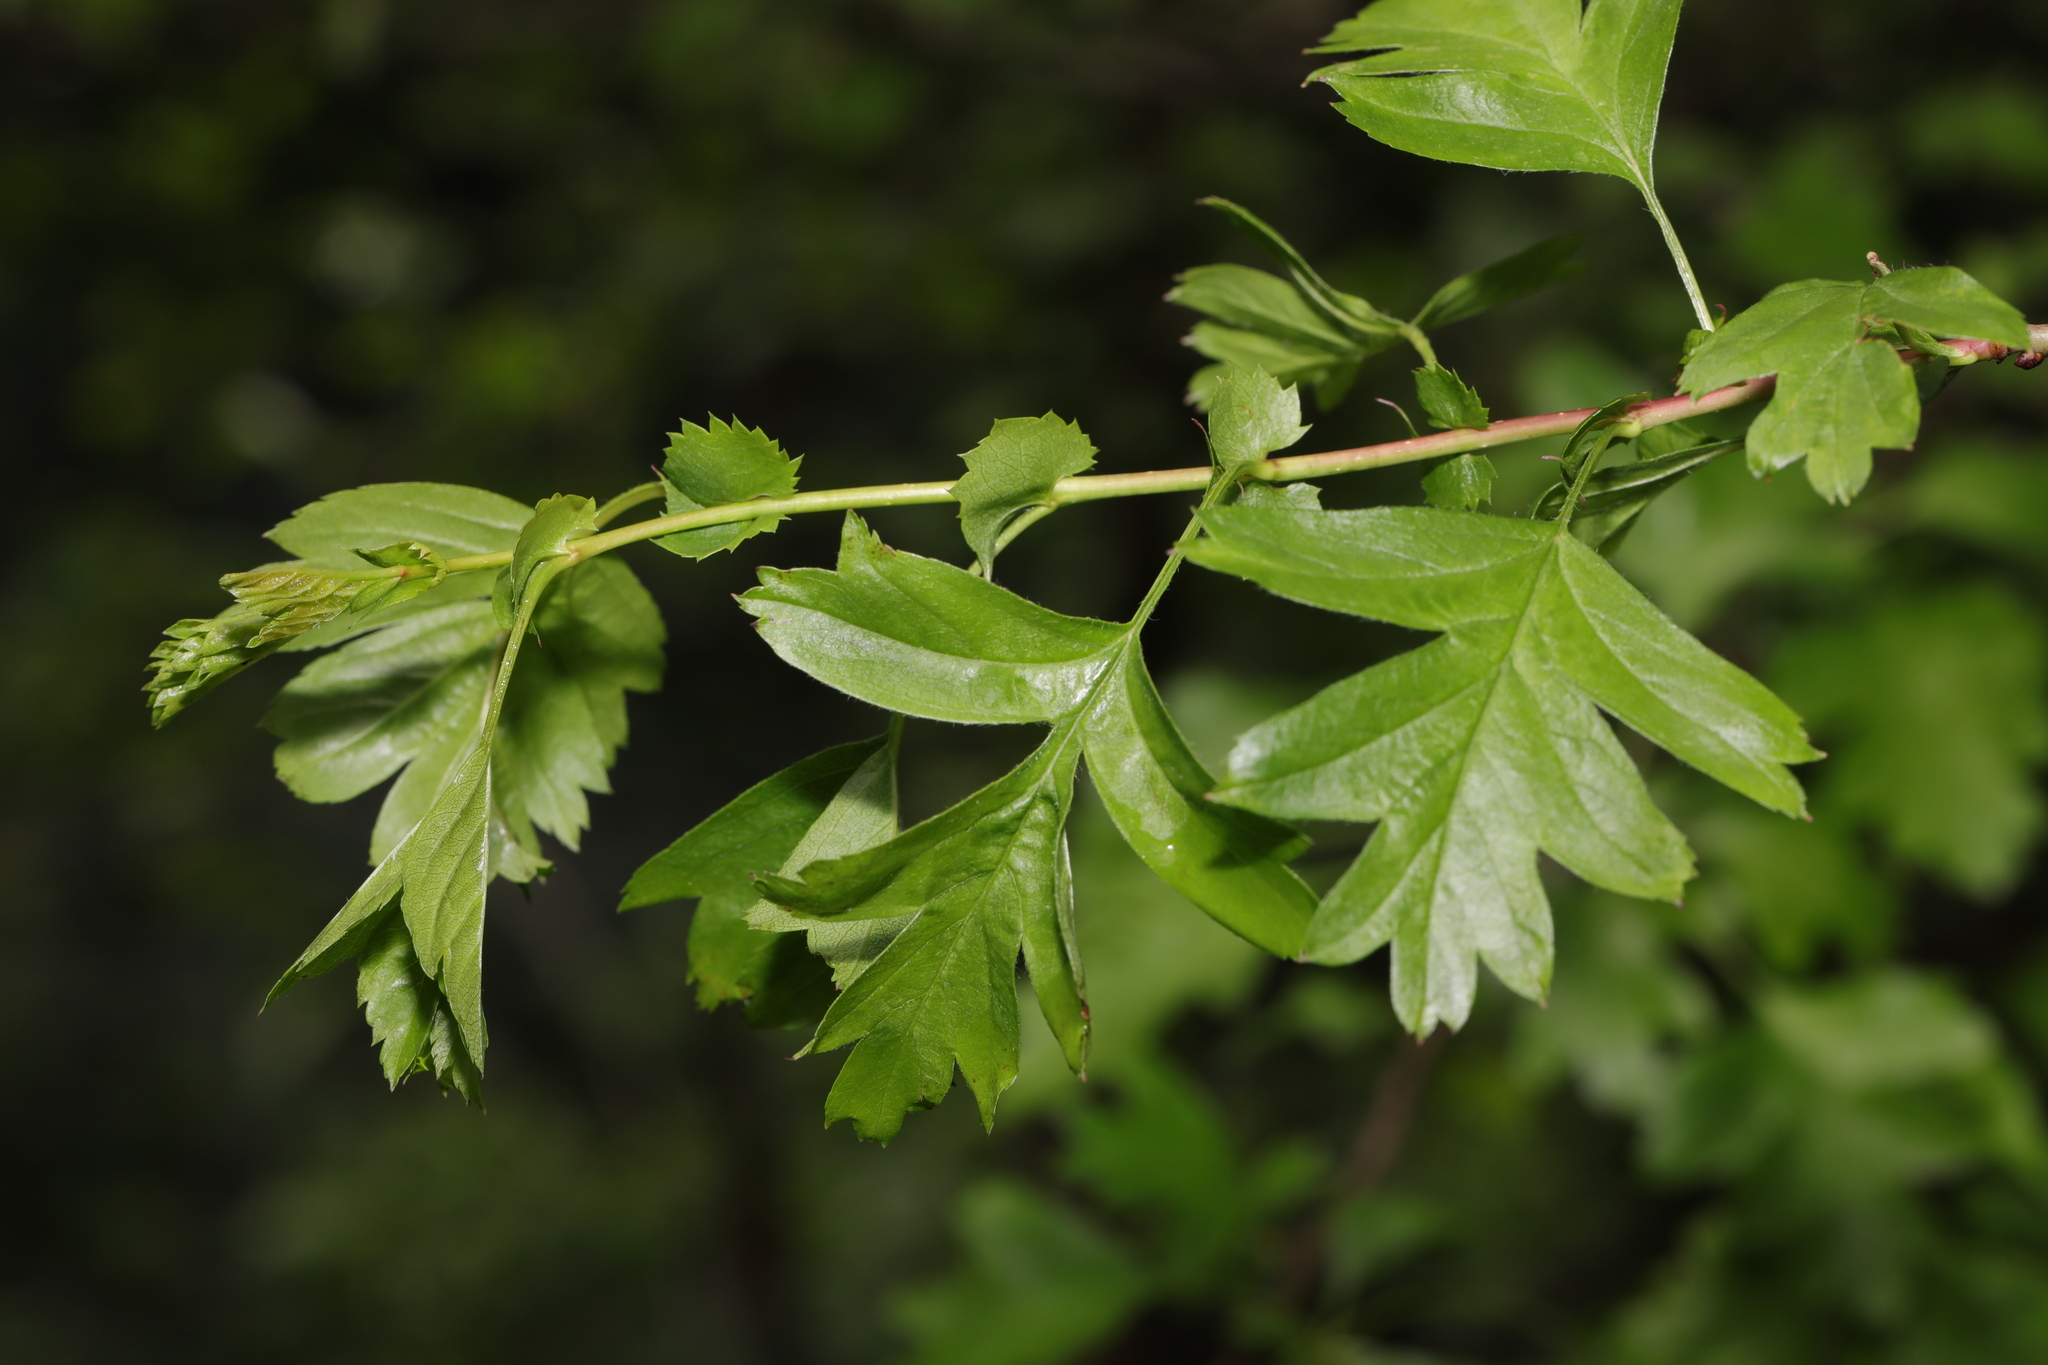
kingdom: Plantae
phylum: Tracheophyta
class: Magnoliopsida
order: Rosales
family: Rosaceae
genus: Crataegus
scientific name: Crataegus monogyna
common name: Hawthorn
